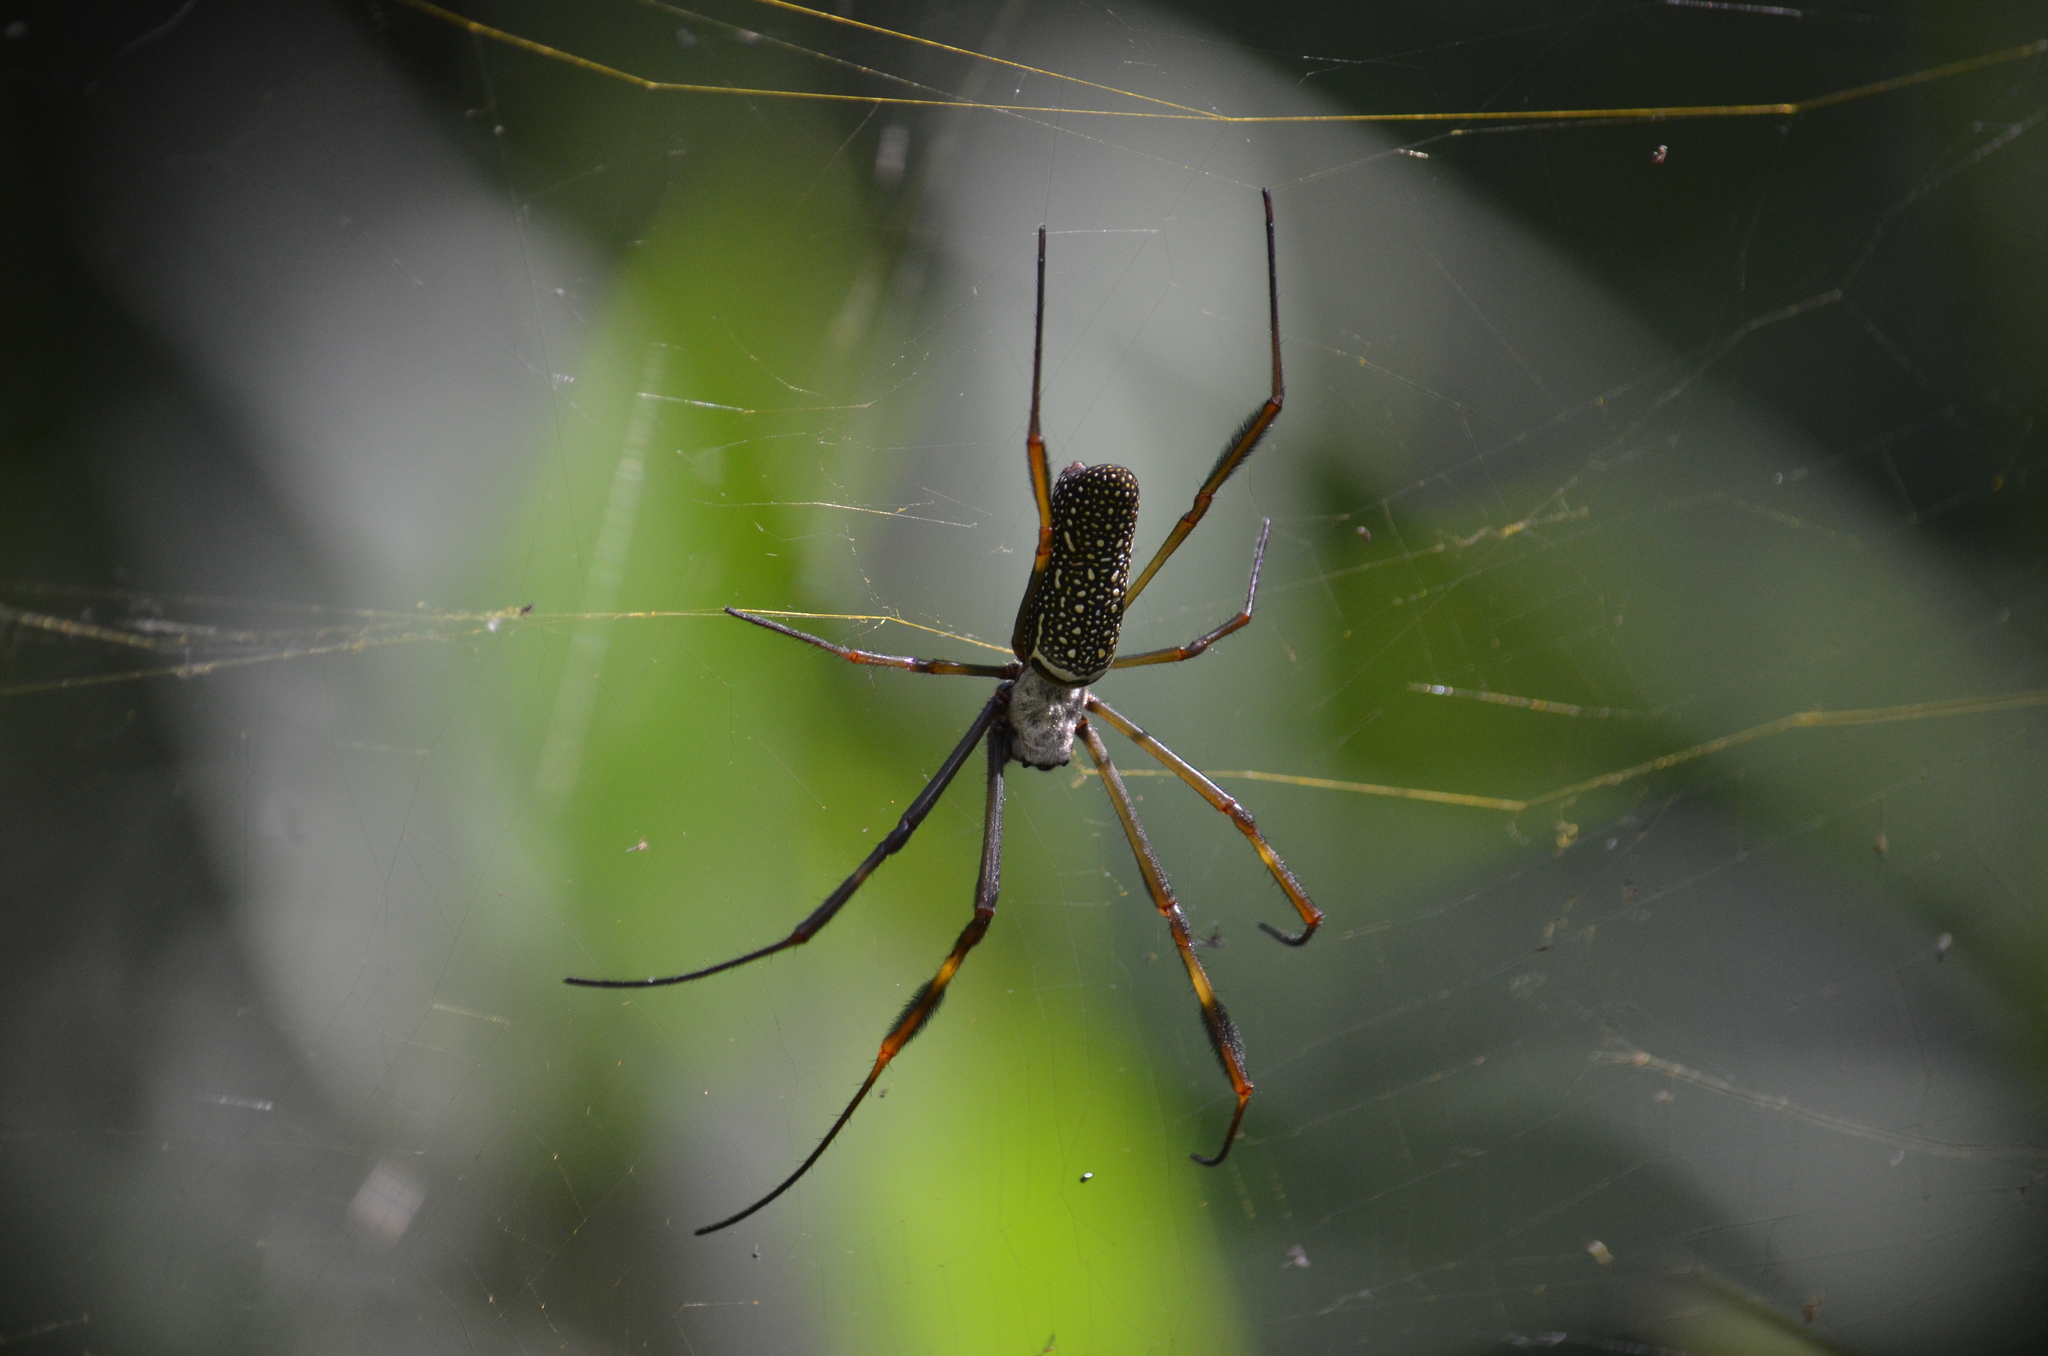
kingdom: Animalia
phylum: Arthropoda
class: Arachnida
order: Araneae
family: Araneidae
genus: Trichonephila
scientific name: Trichonephila clavipes
